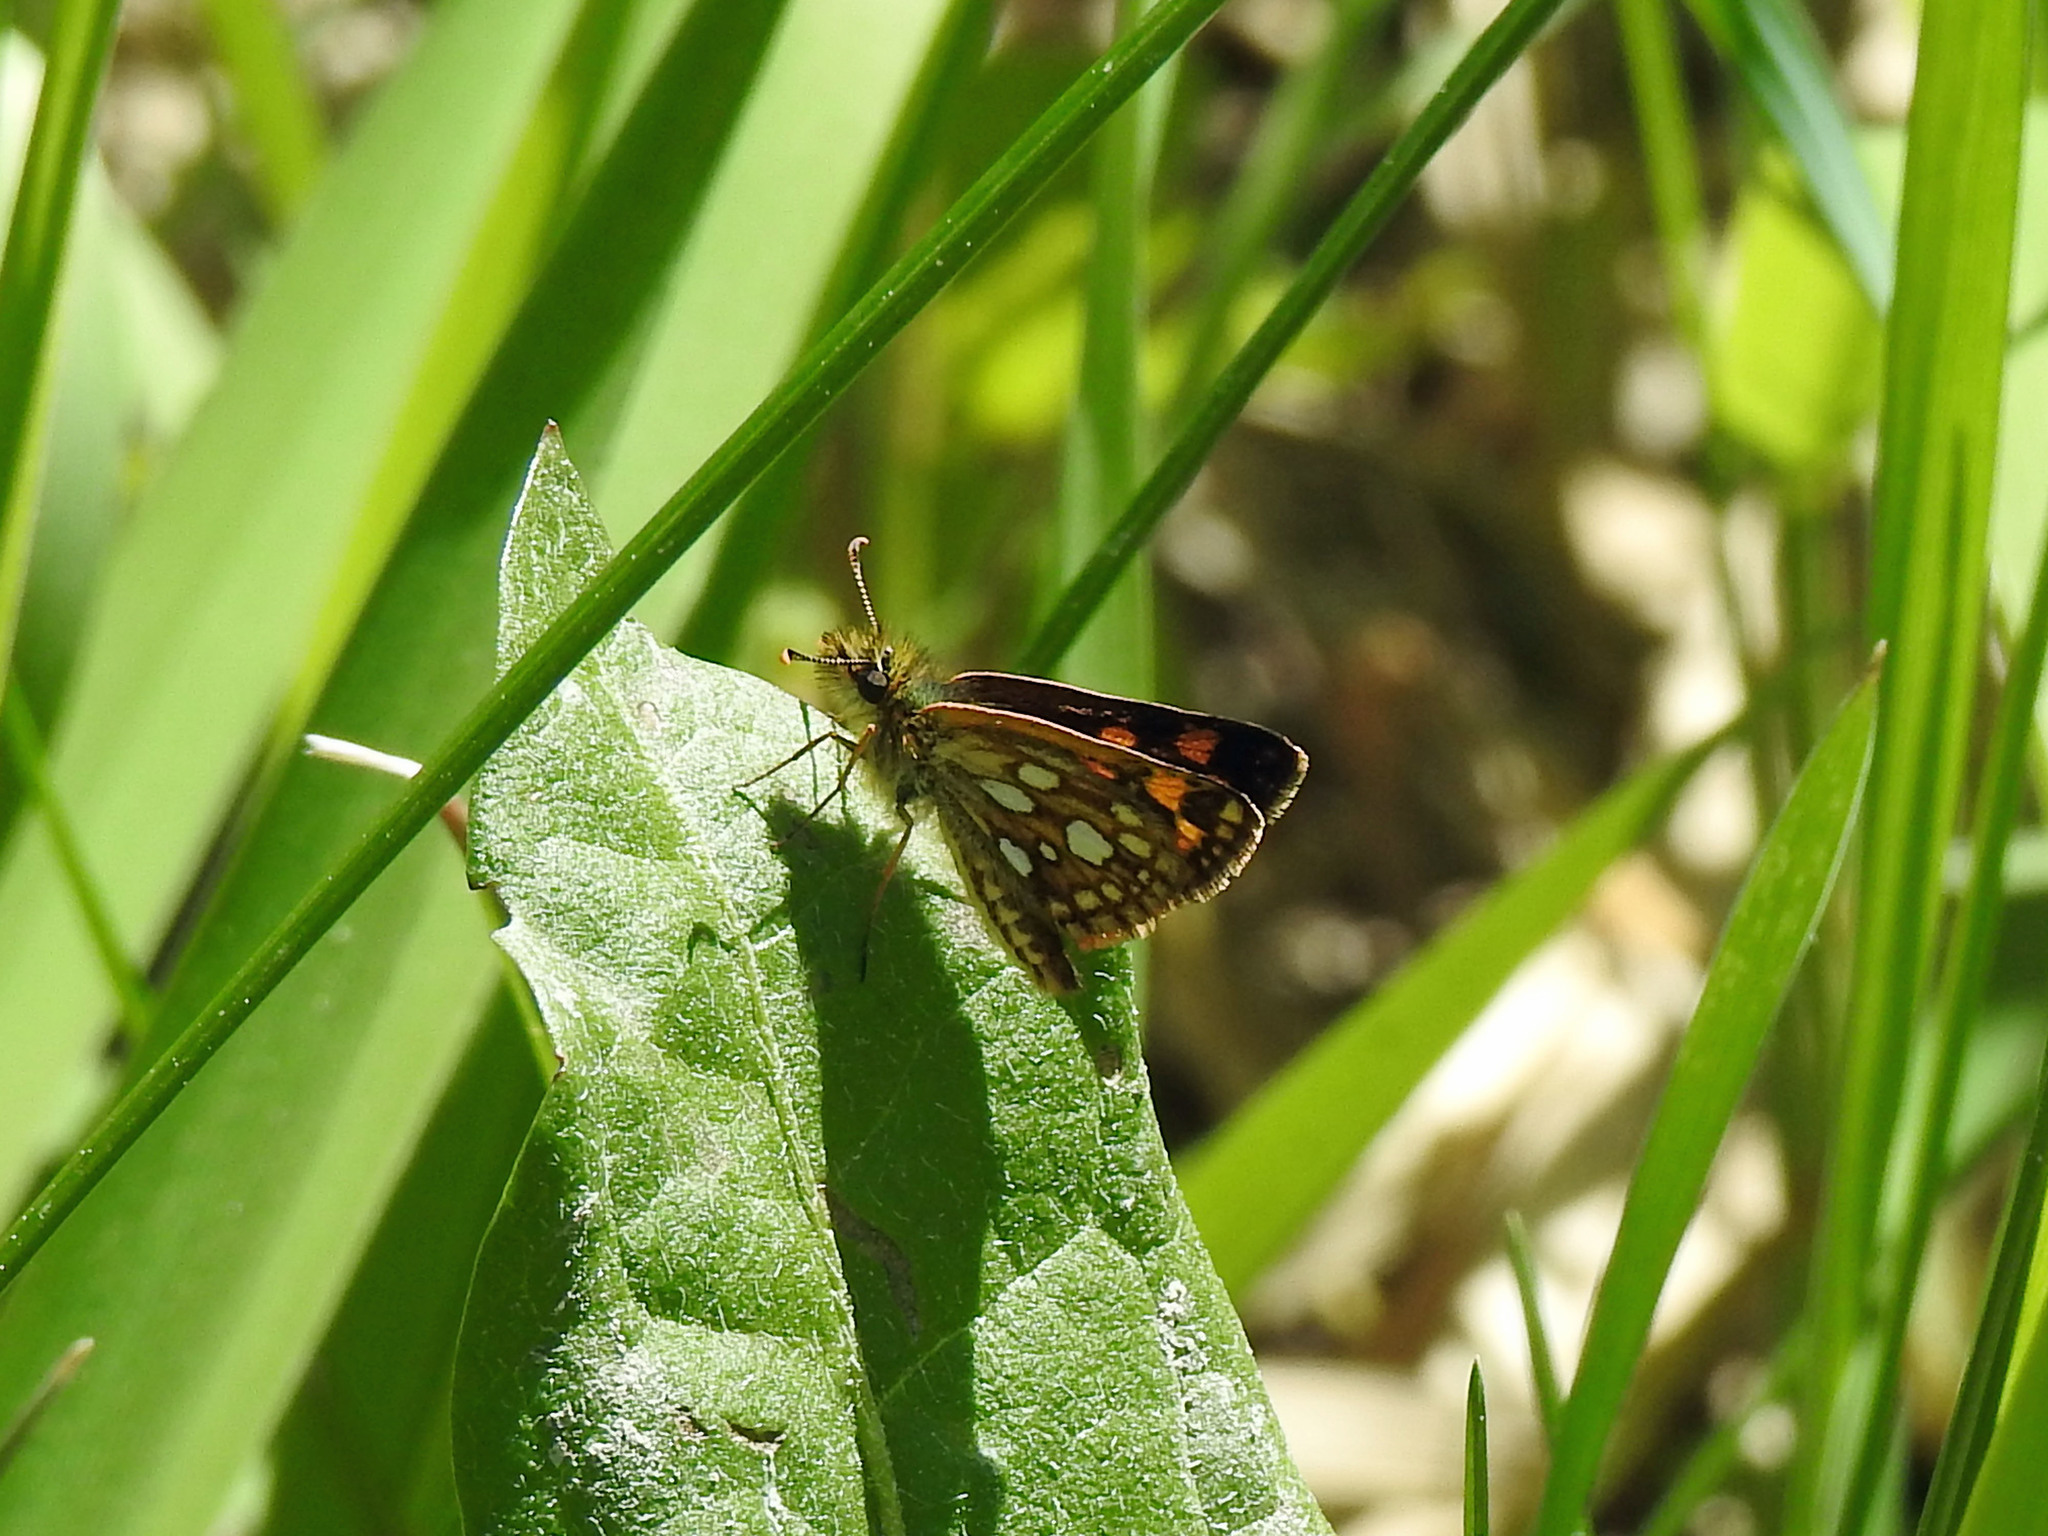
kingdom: Animalia
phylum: Arthropoda
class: Insecta
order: Lepidoptera
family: Hesperiidae
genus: Carterocephalus
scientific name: Carterocephalus mandan
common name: Arctic skipperling
